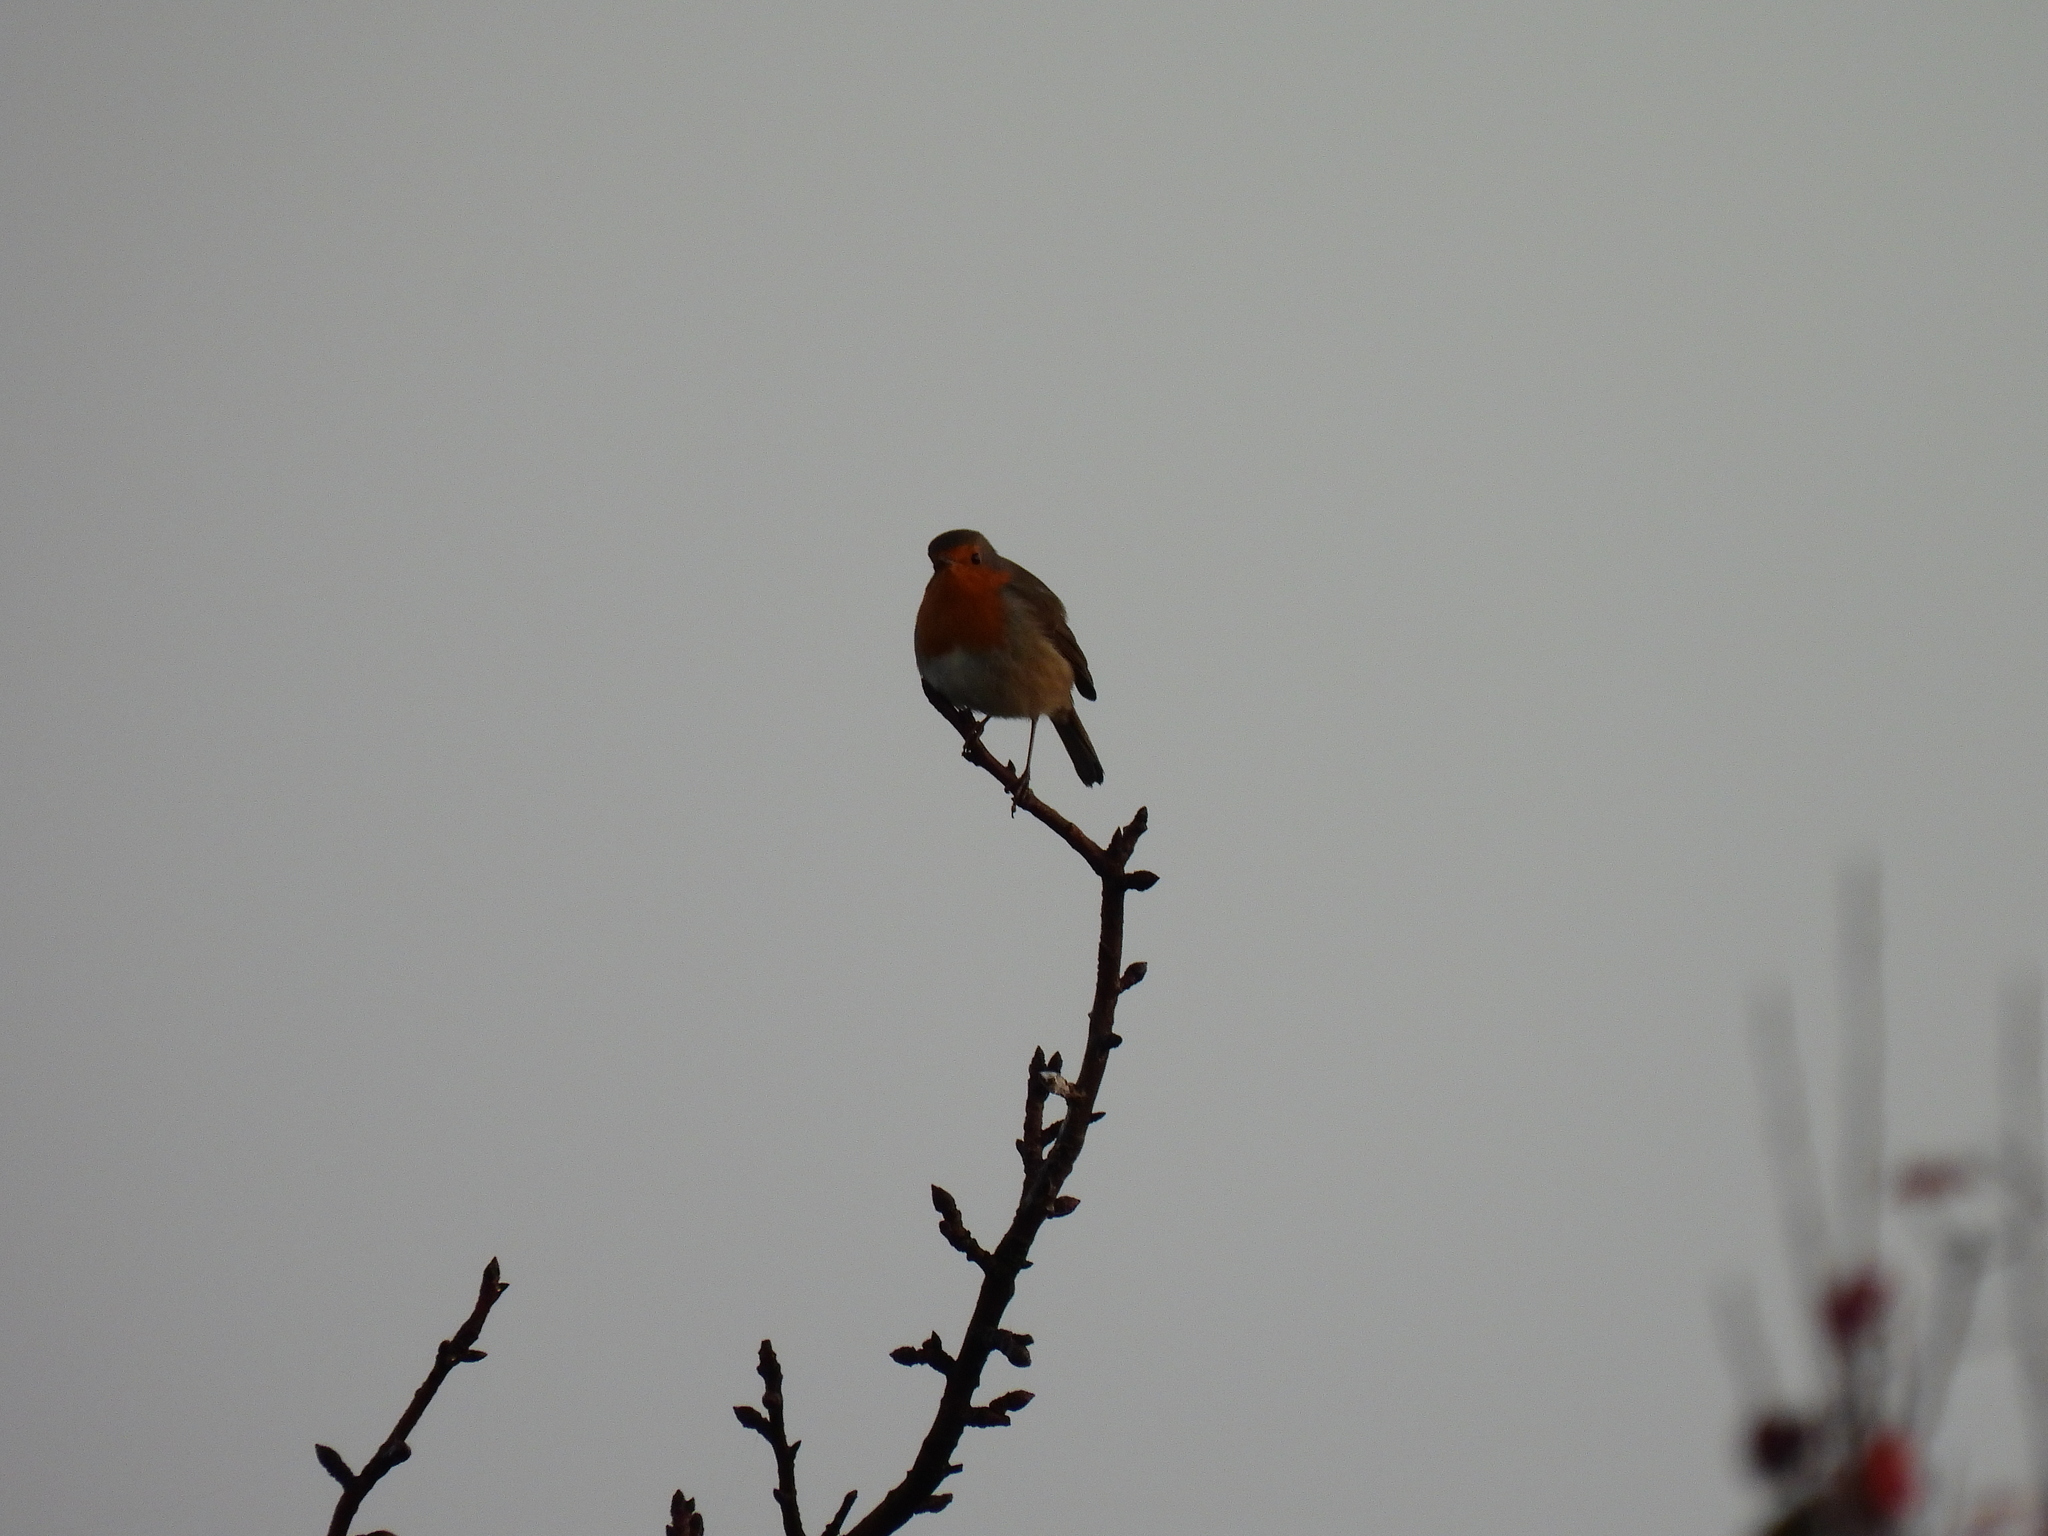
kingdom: Animalia
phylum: Chordata
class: Aves
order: Passeriformes
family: Muscicapidae
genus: Erithacus
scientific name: Erithacus rubecula
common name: European robin
